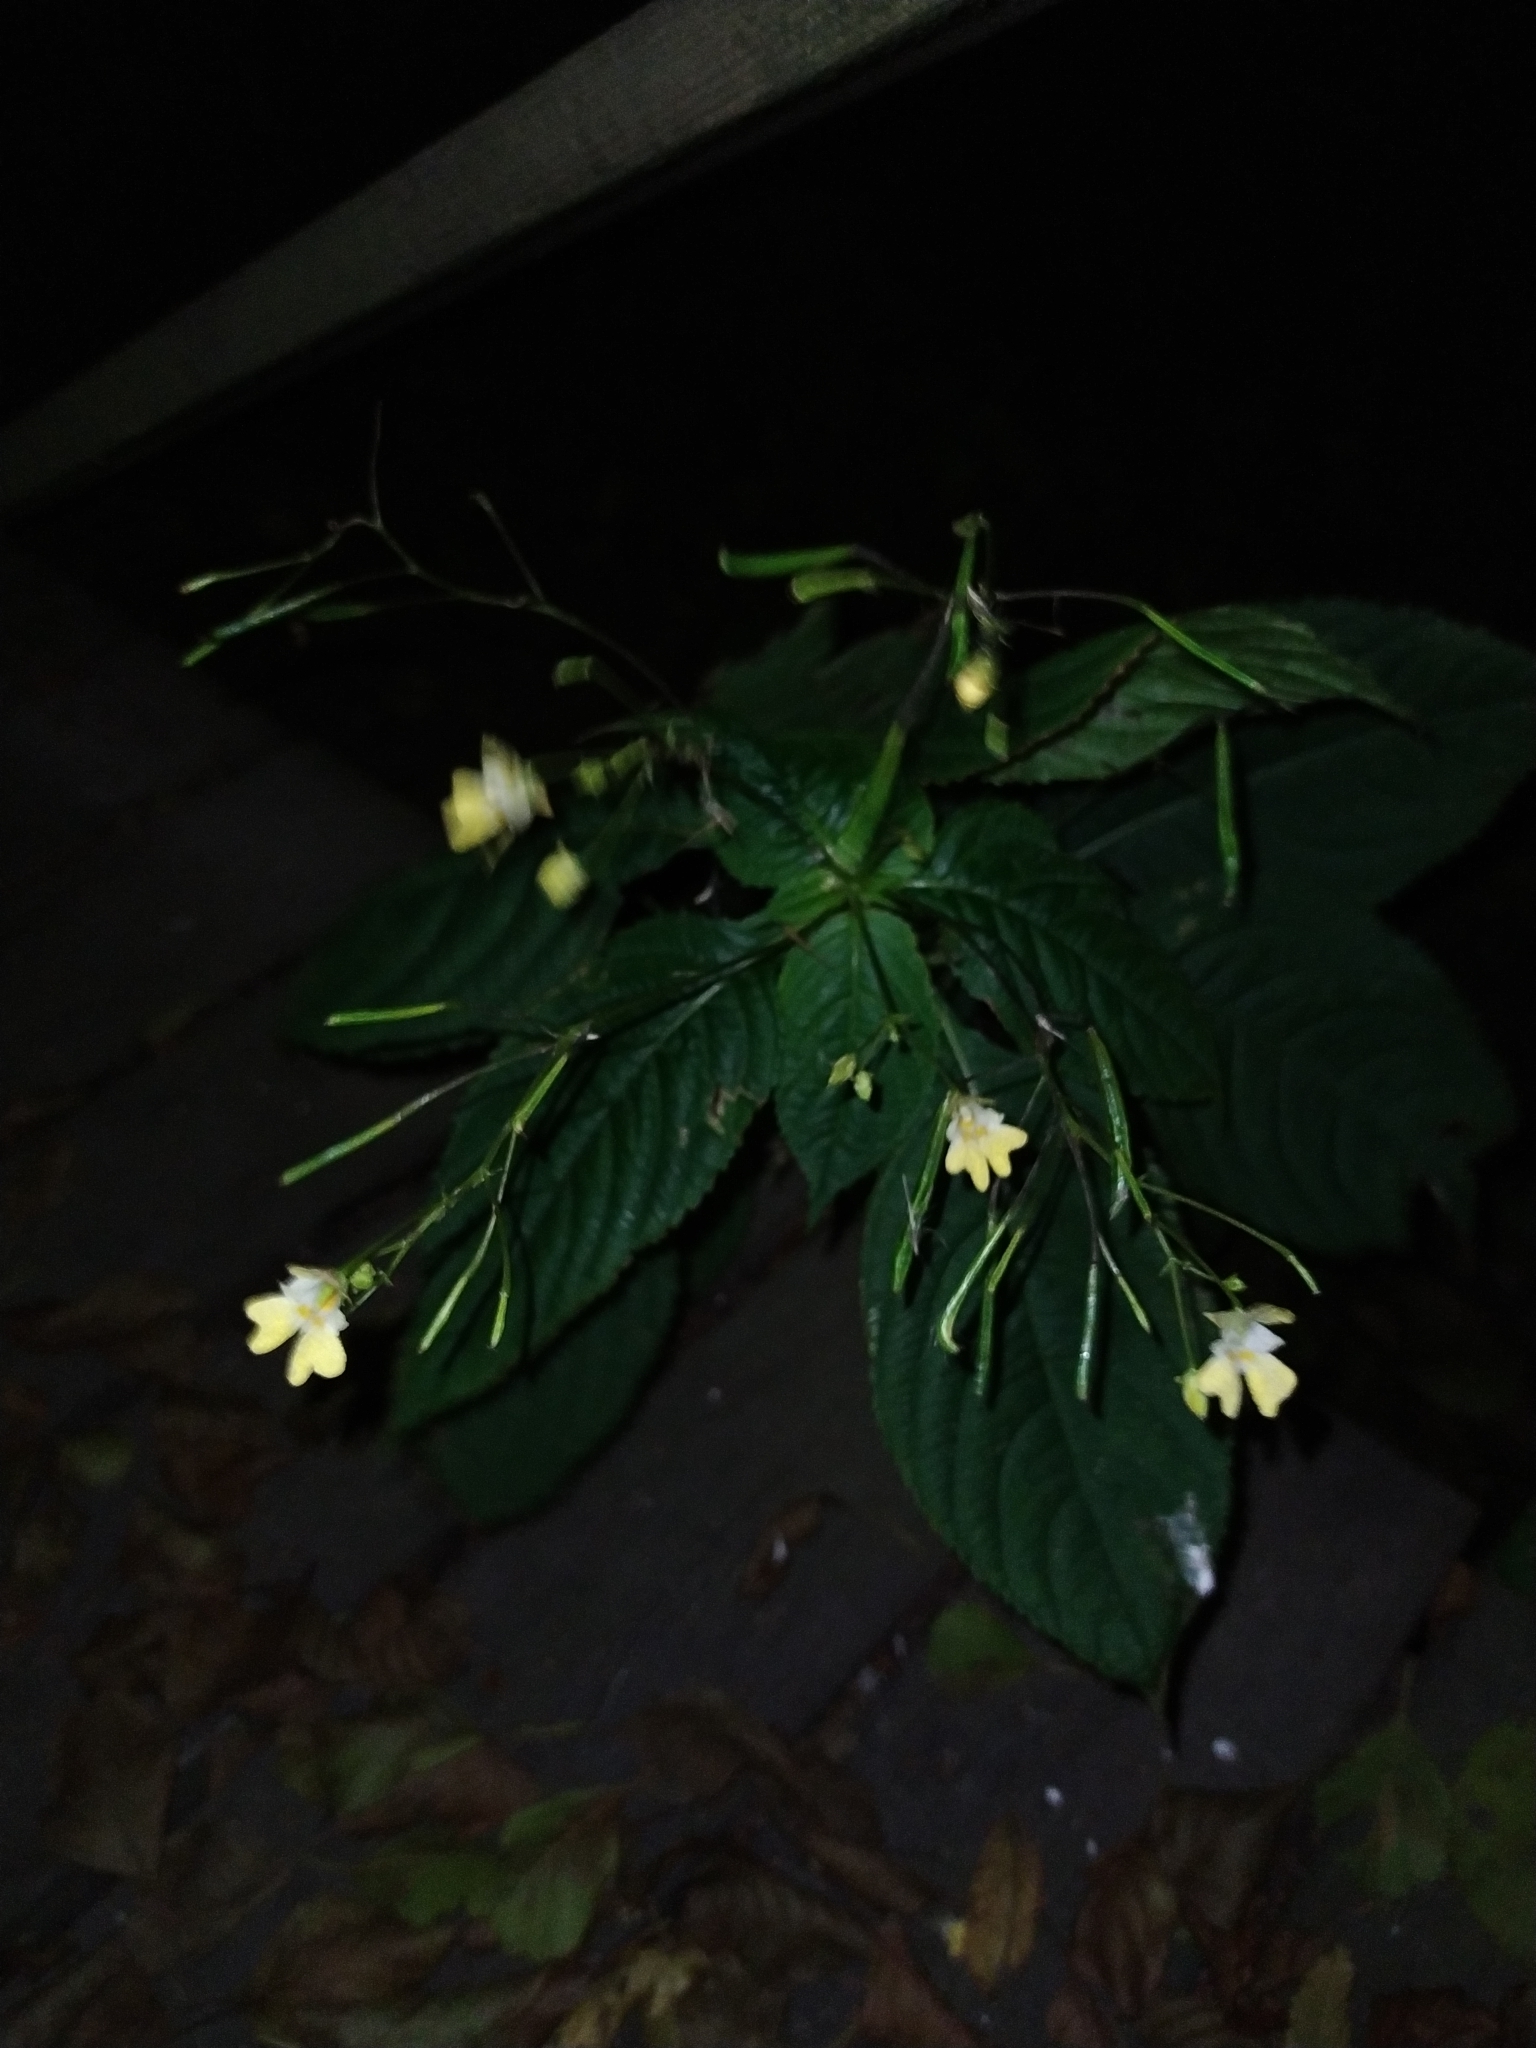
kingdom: Plantae
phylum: Tracheophyta
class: Magnoliopsida
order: Ericales
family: Balsaminaceae
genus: Impatiens
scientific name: Impatiens parviflora
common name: Small balsam
